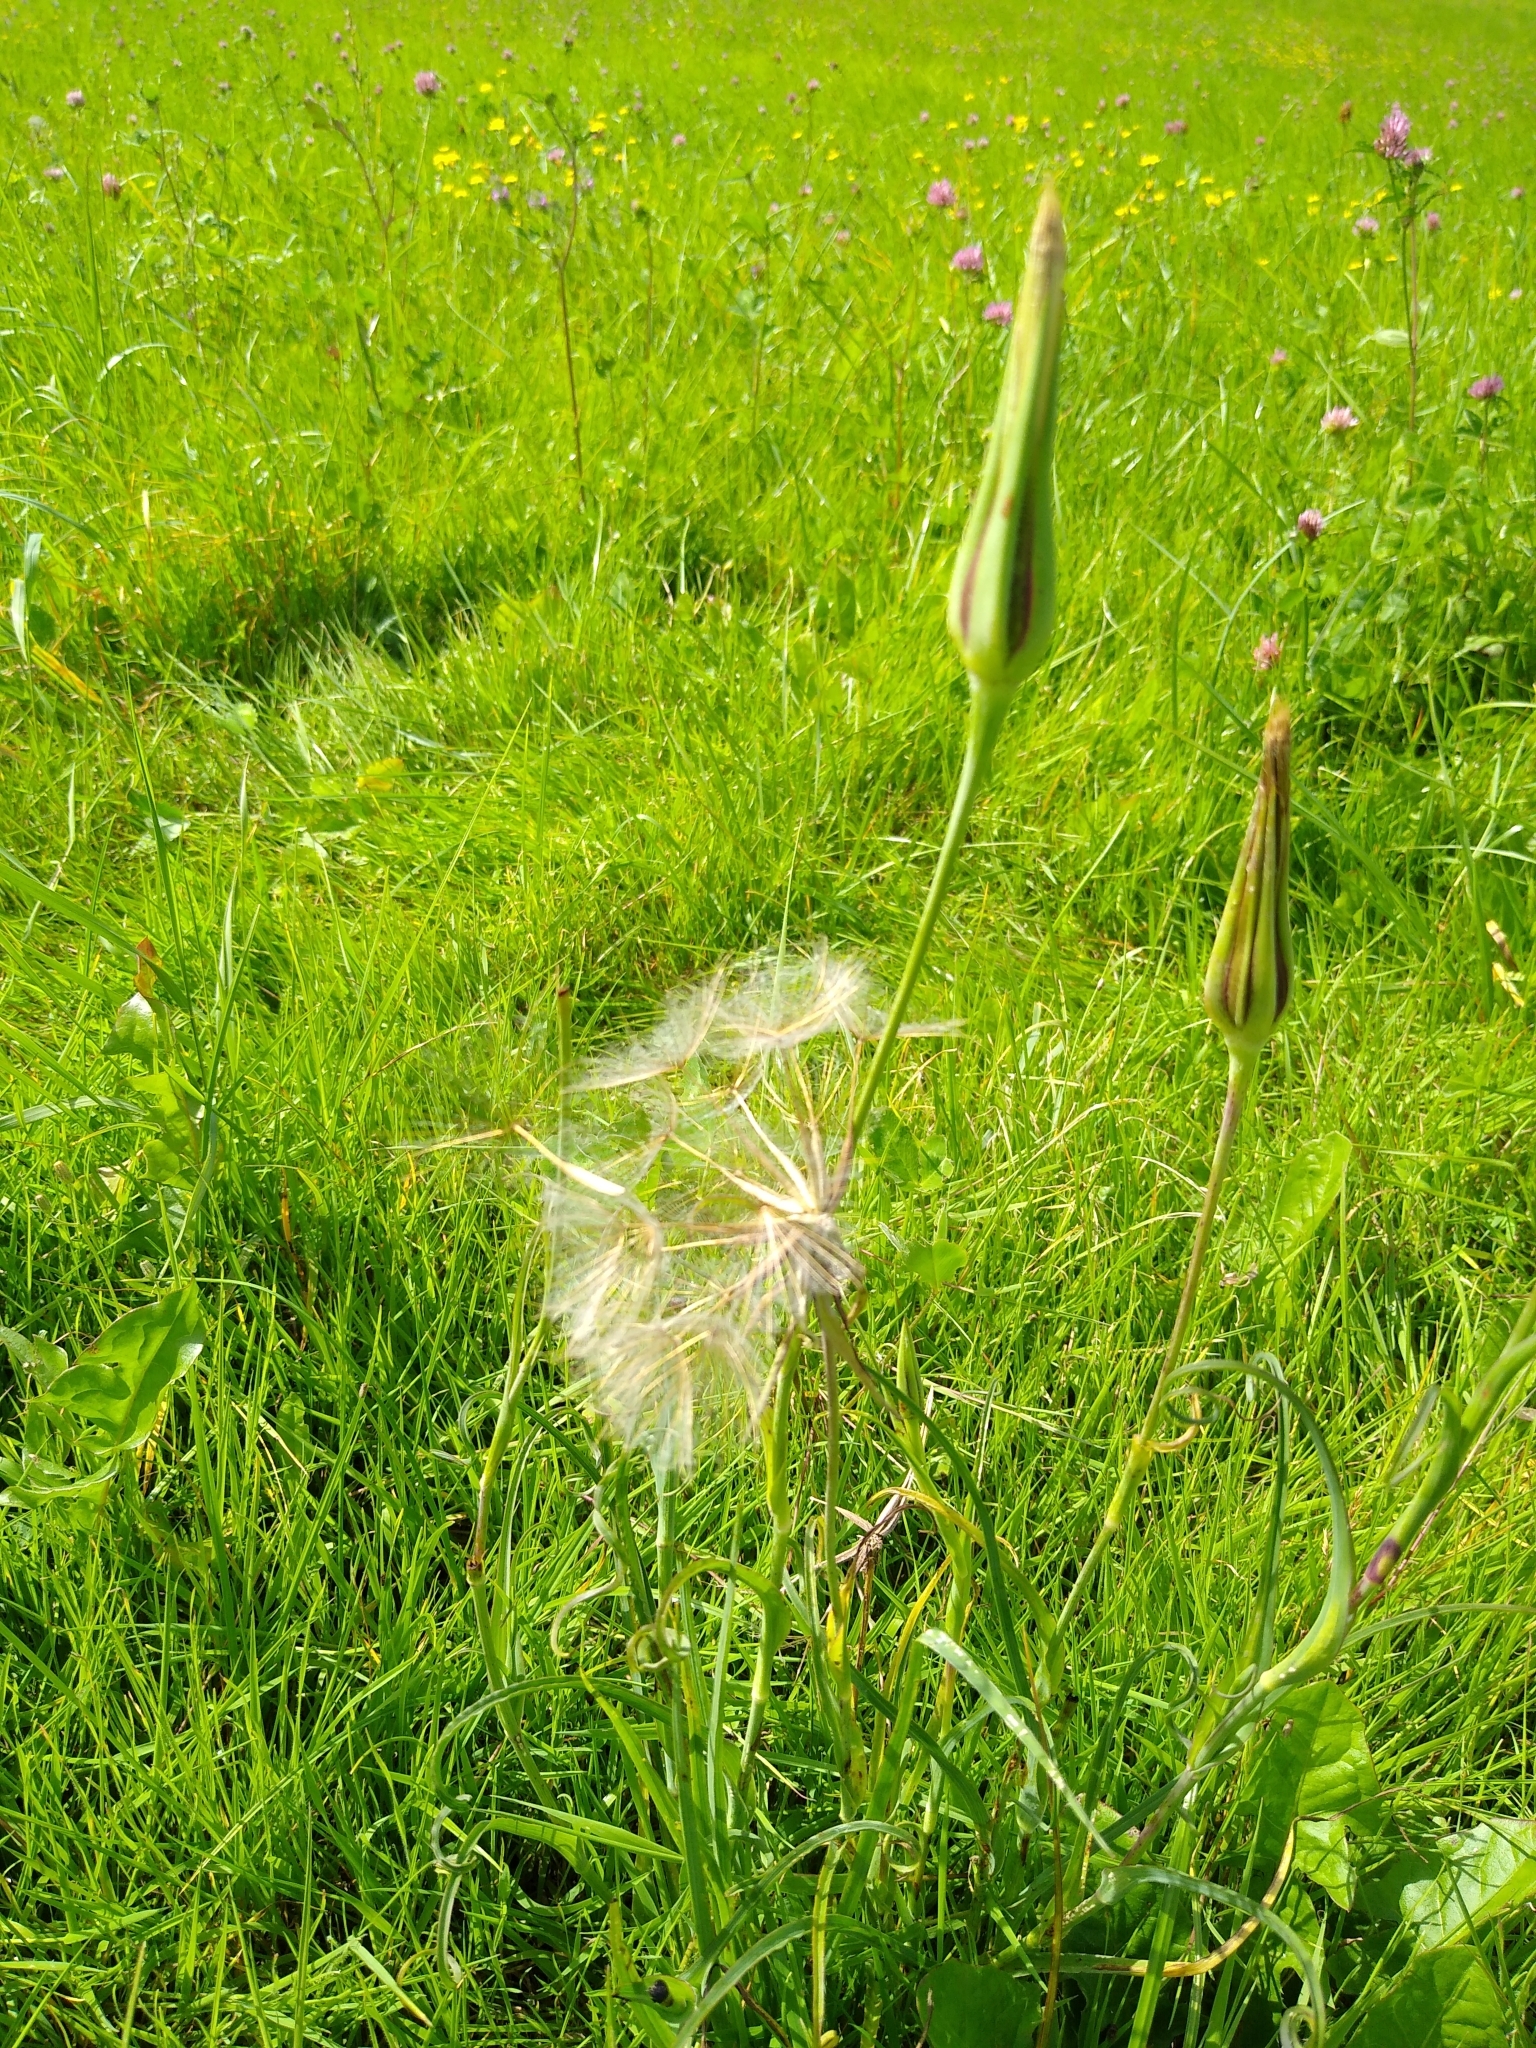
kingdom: Plantae
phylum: Tracheophyta
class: Magnoliopsida
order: Asterales
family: Asteraceae
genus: Tragopogon
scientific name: Tragopogon pratensis
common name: Goat's-beard
